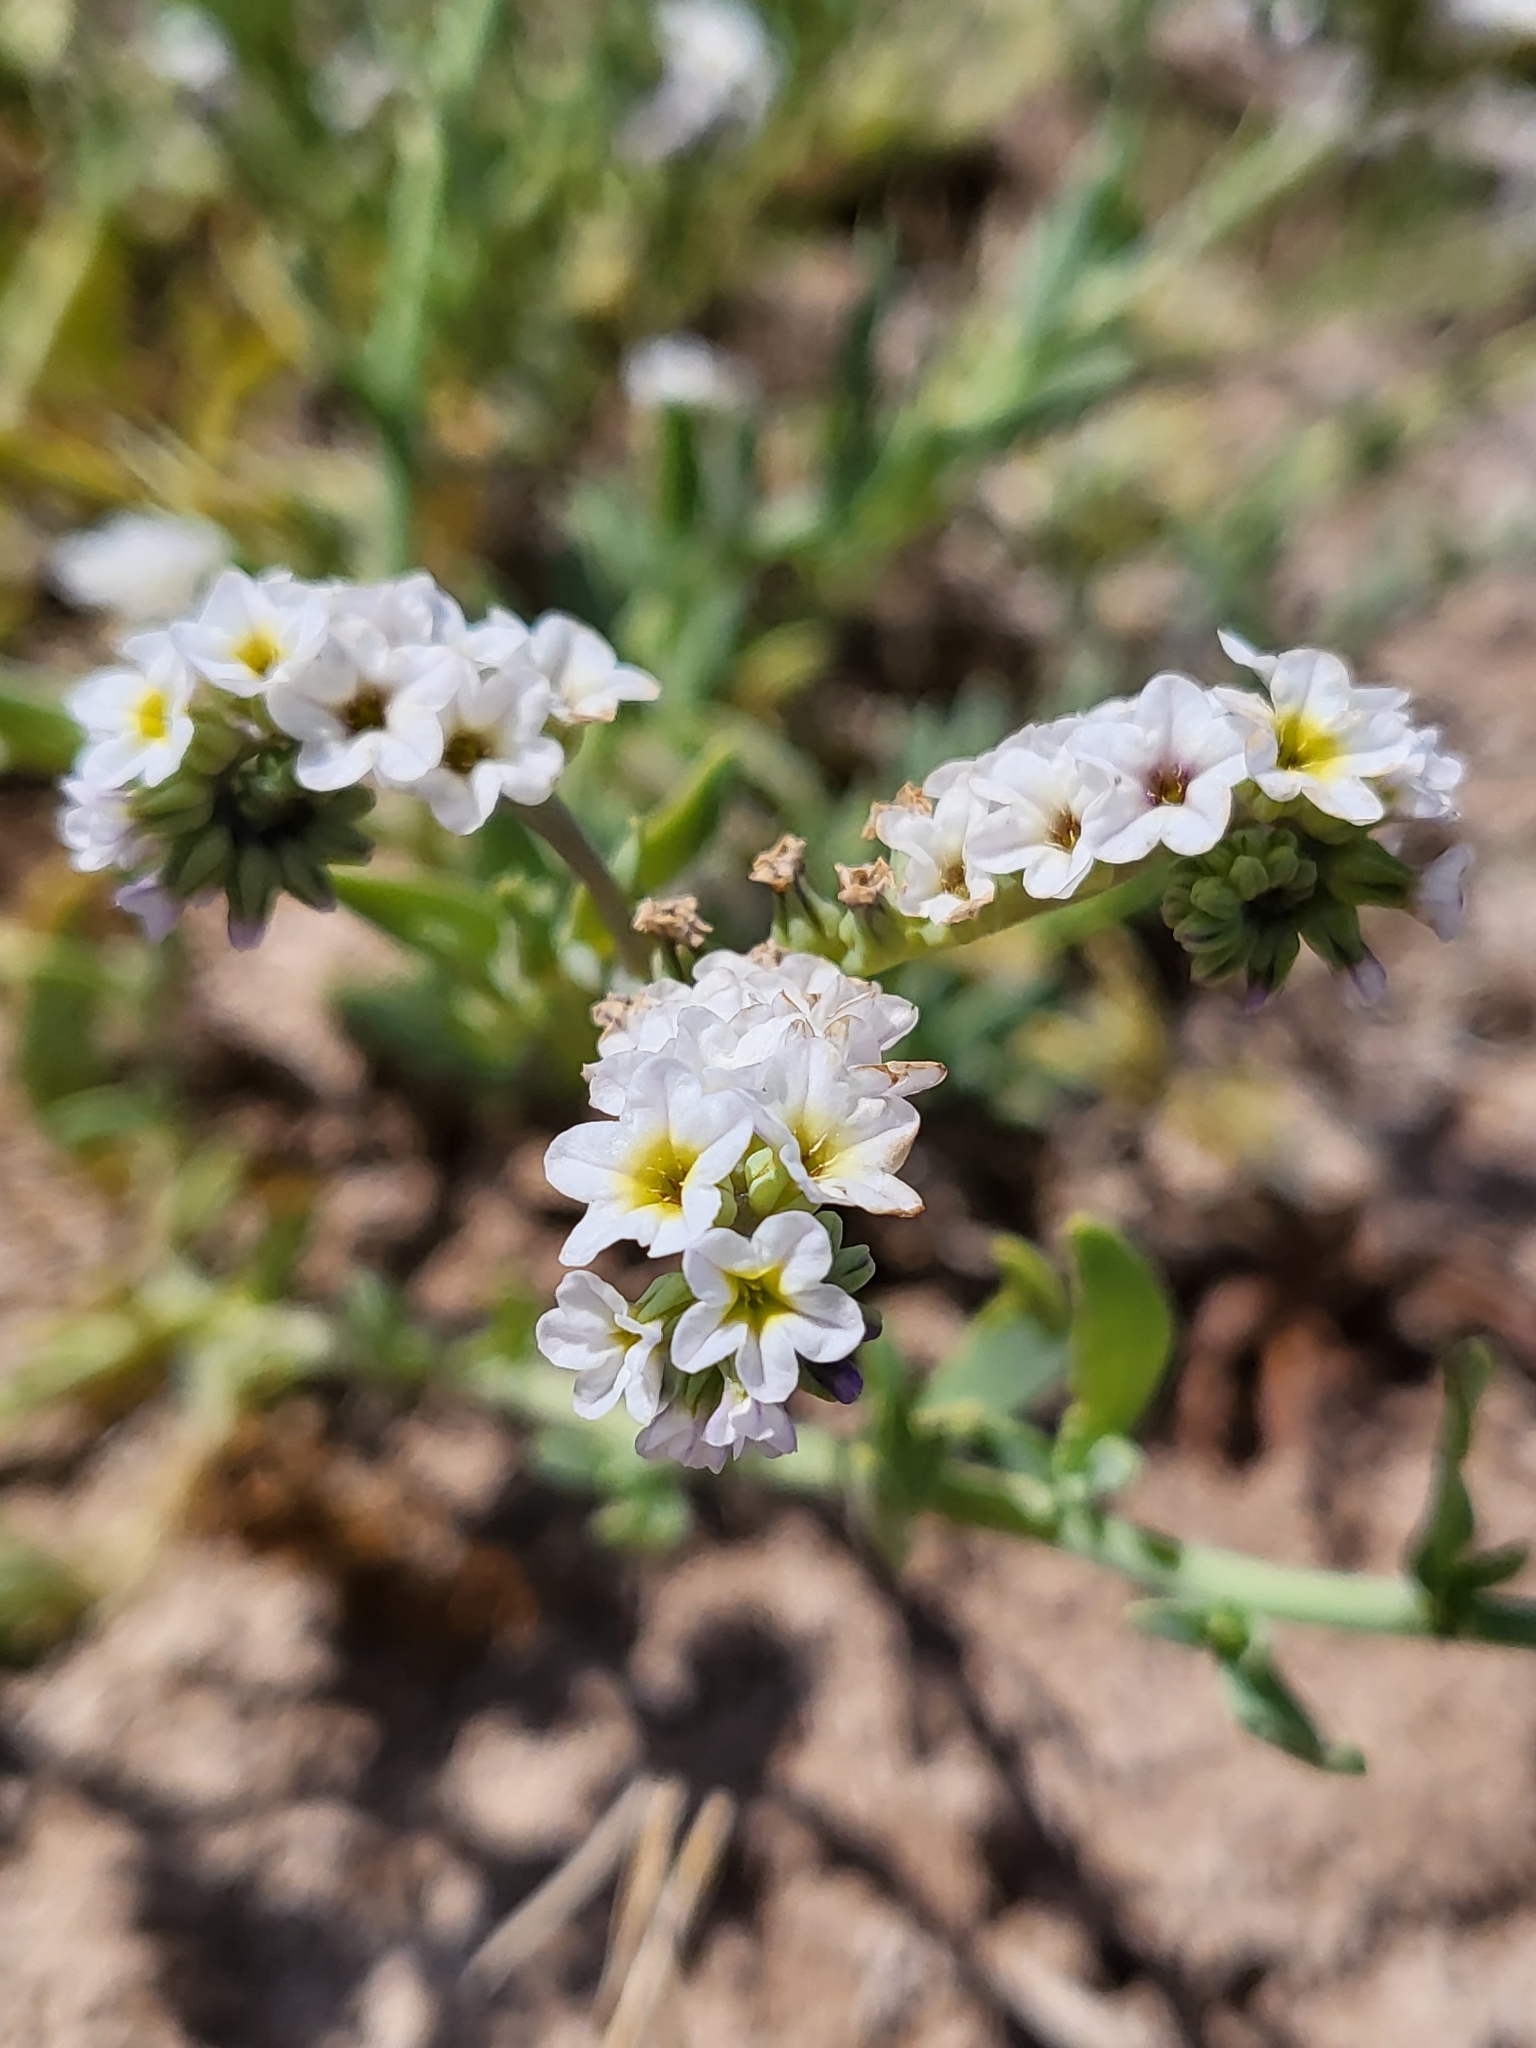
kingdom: Plantae
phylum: Tracheophyta
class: Magnoliopsida
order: Boraginales
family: Heliotropiaceae
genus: Heliotropium
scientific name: Heliotropium curassavicum
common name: Seaside heliotrope
